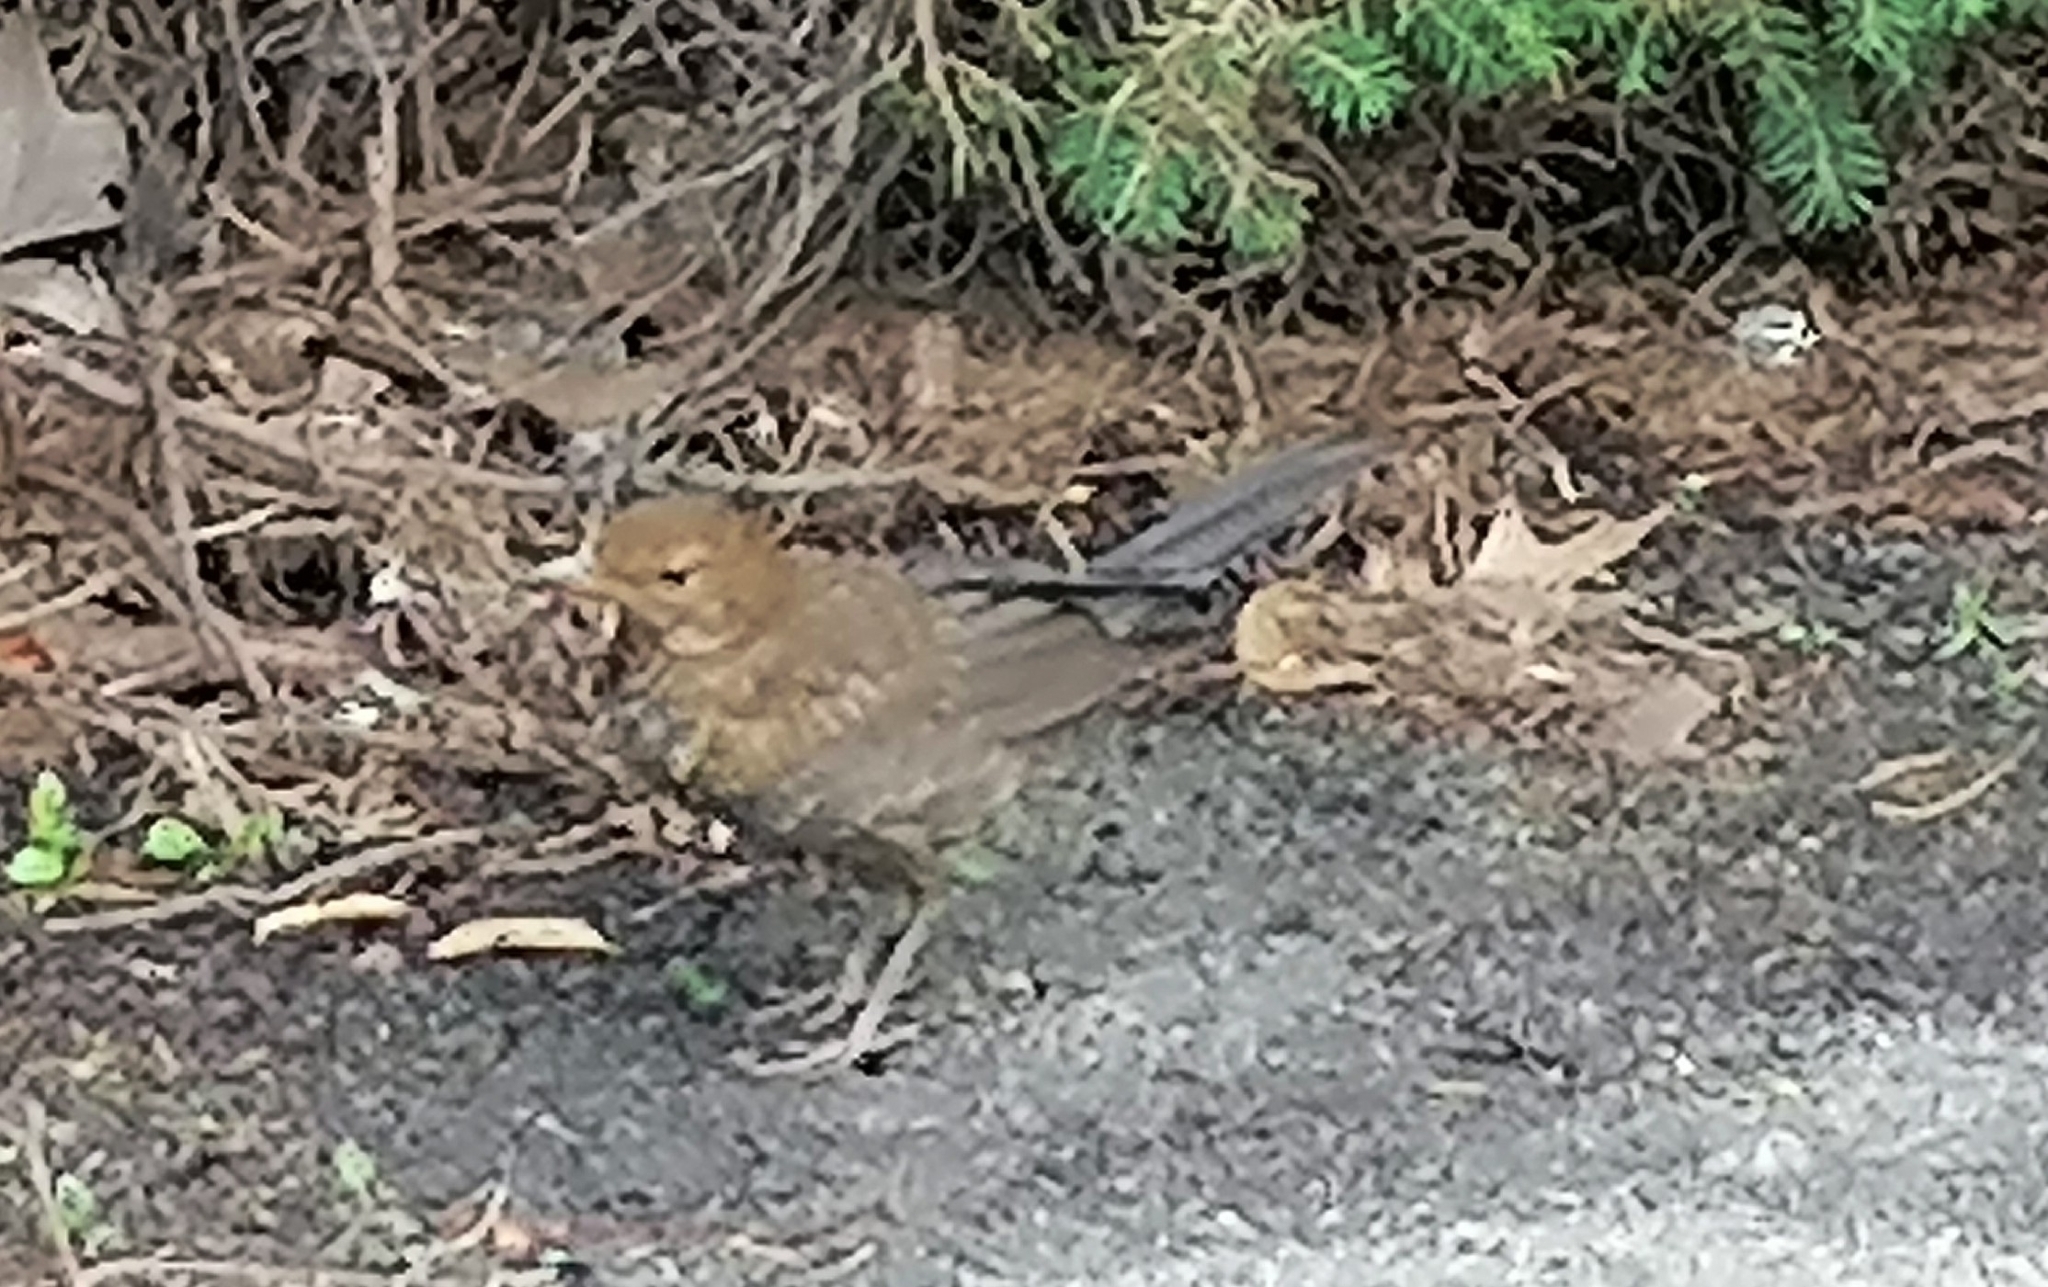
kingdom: Animalia
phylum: Chordata
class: Aves
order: Passeriformes
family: Turdidae
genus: Turdus
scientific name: Turdus merula
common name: Common blackbird
